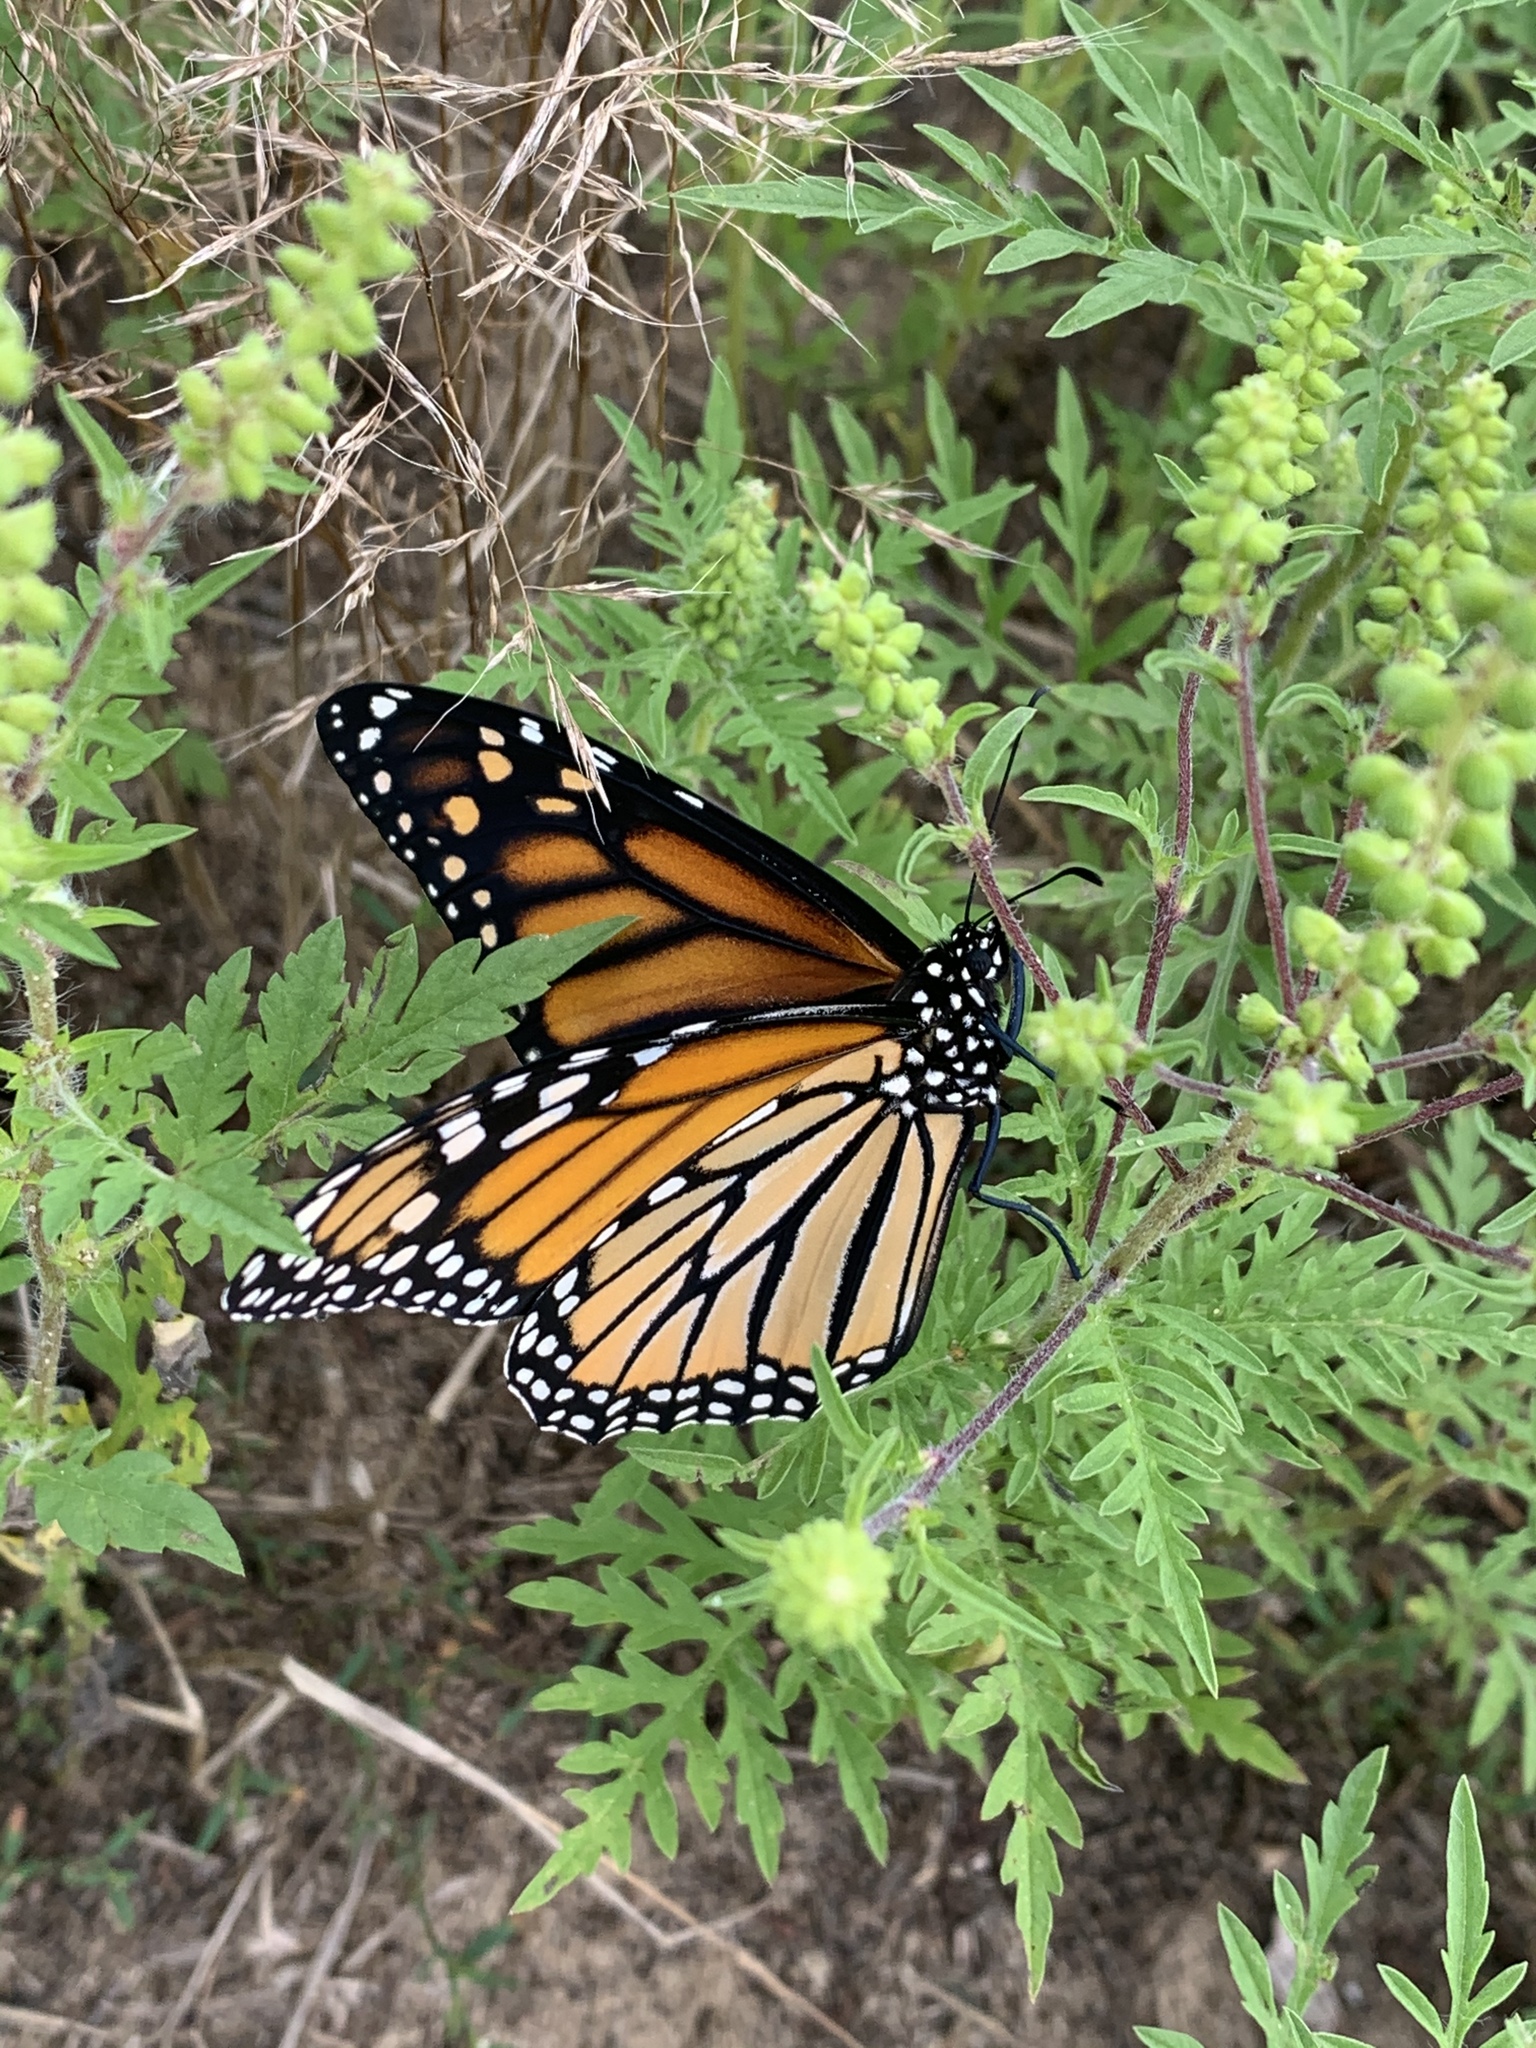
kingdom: Animalia
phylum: Arthropoda
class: Insecta
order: Lepidoptera
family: Nymphalidae
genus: Danaus
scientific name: Danaus plexippus
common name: Monarch
